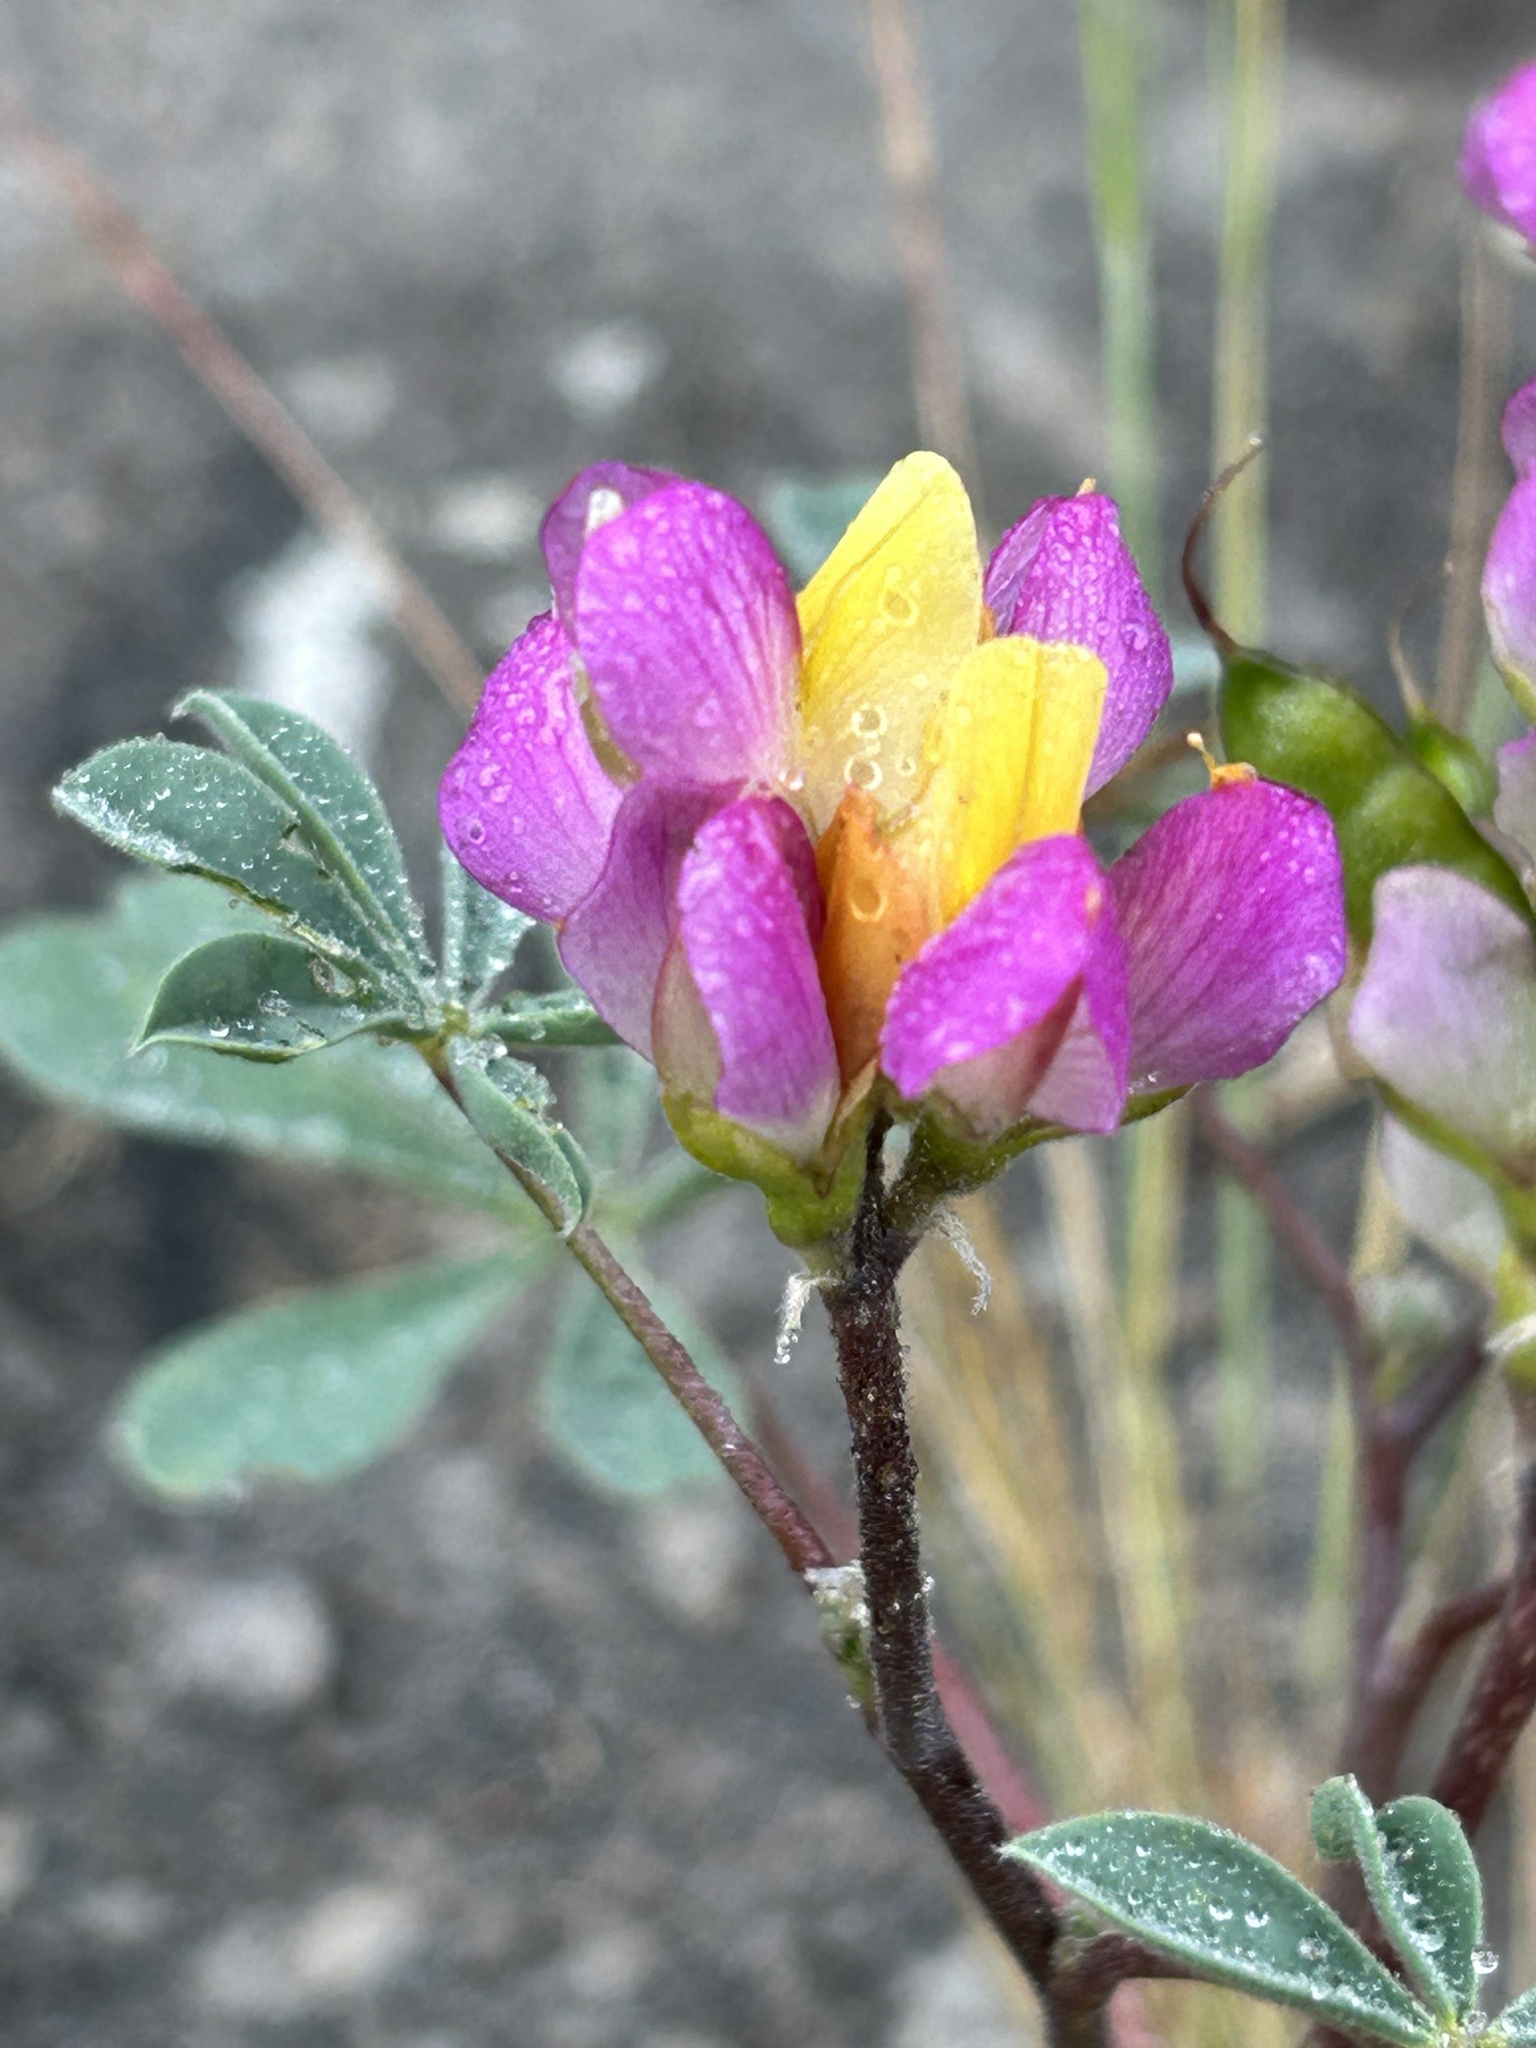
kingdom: Plantae
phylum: Tracheophyta
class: Magnoliopsida
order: Fabales
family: Fabaceae
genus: Lupinus
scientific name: Lupinus stiversii
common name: Harlequin lupine
